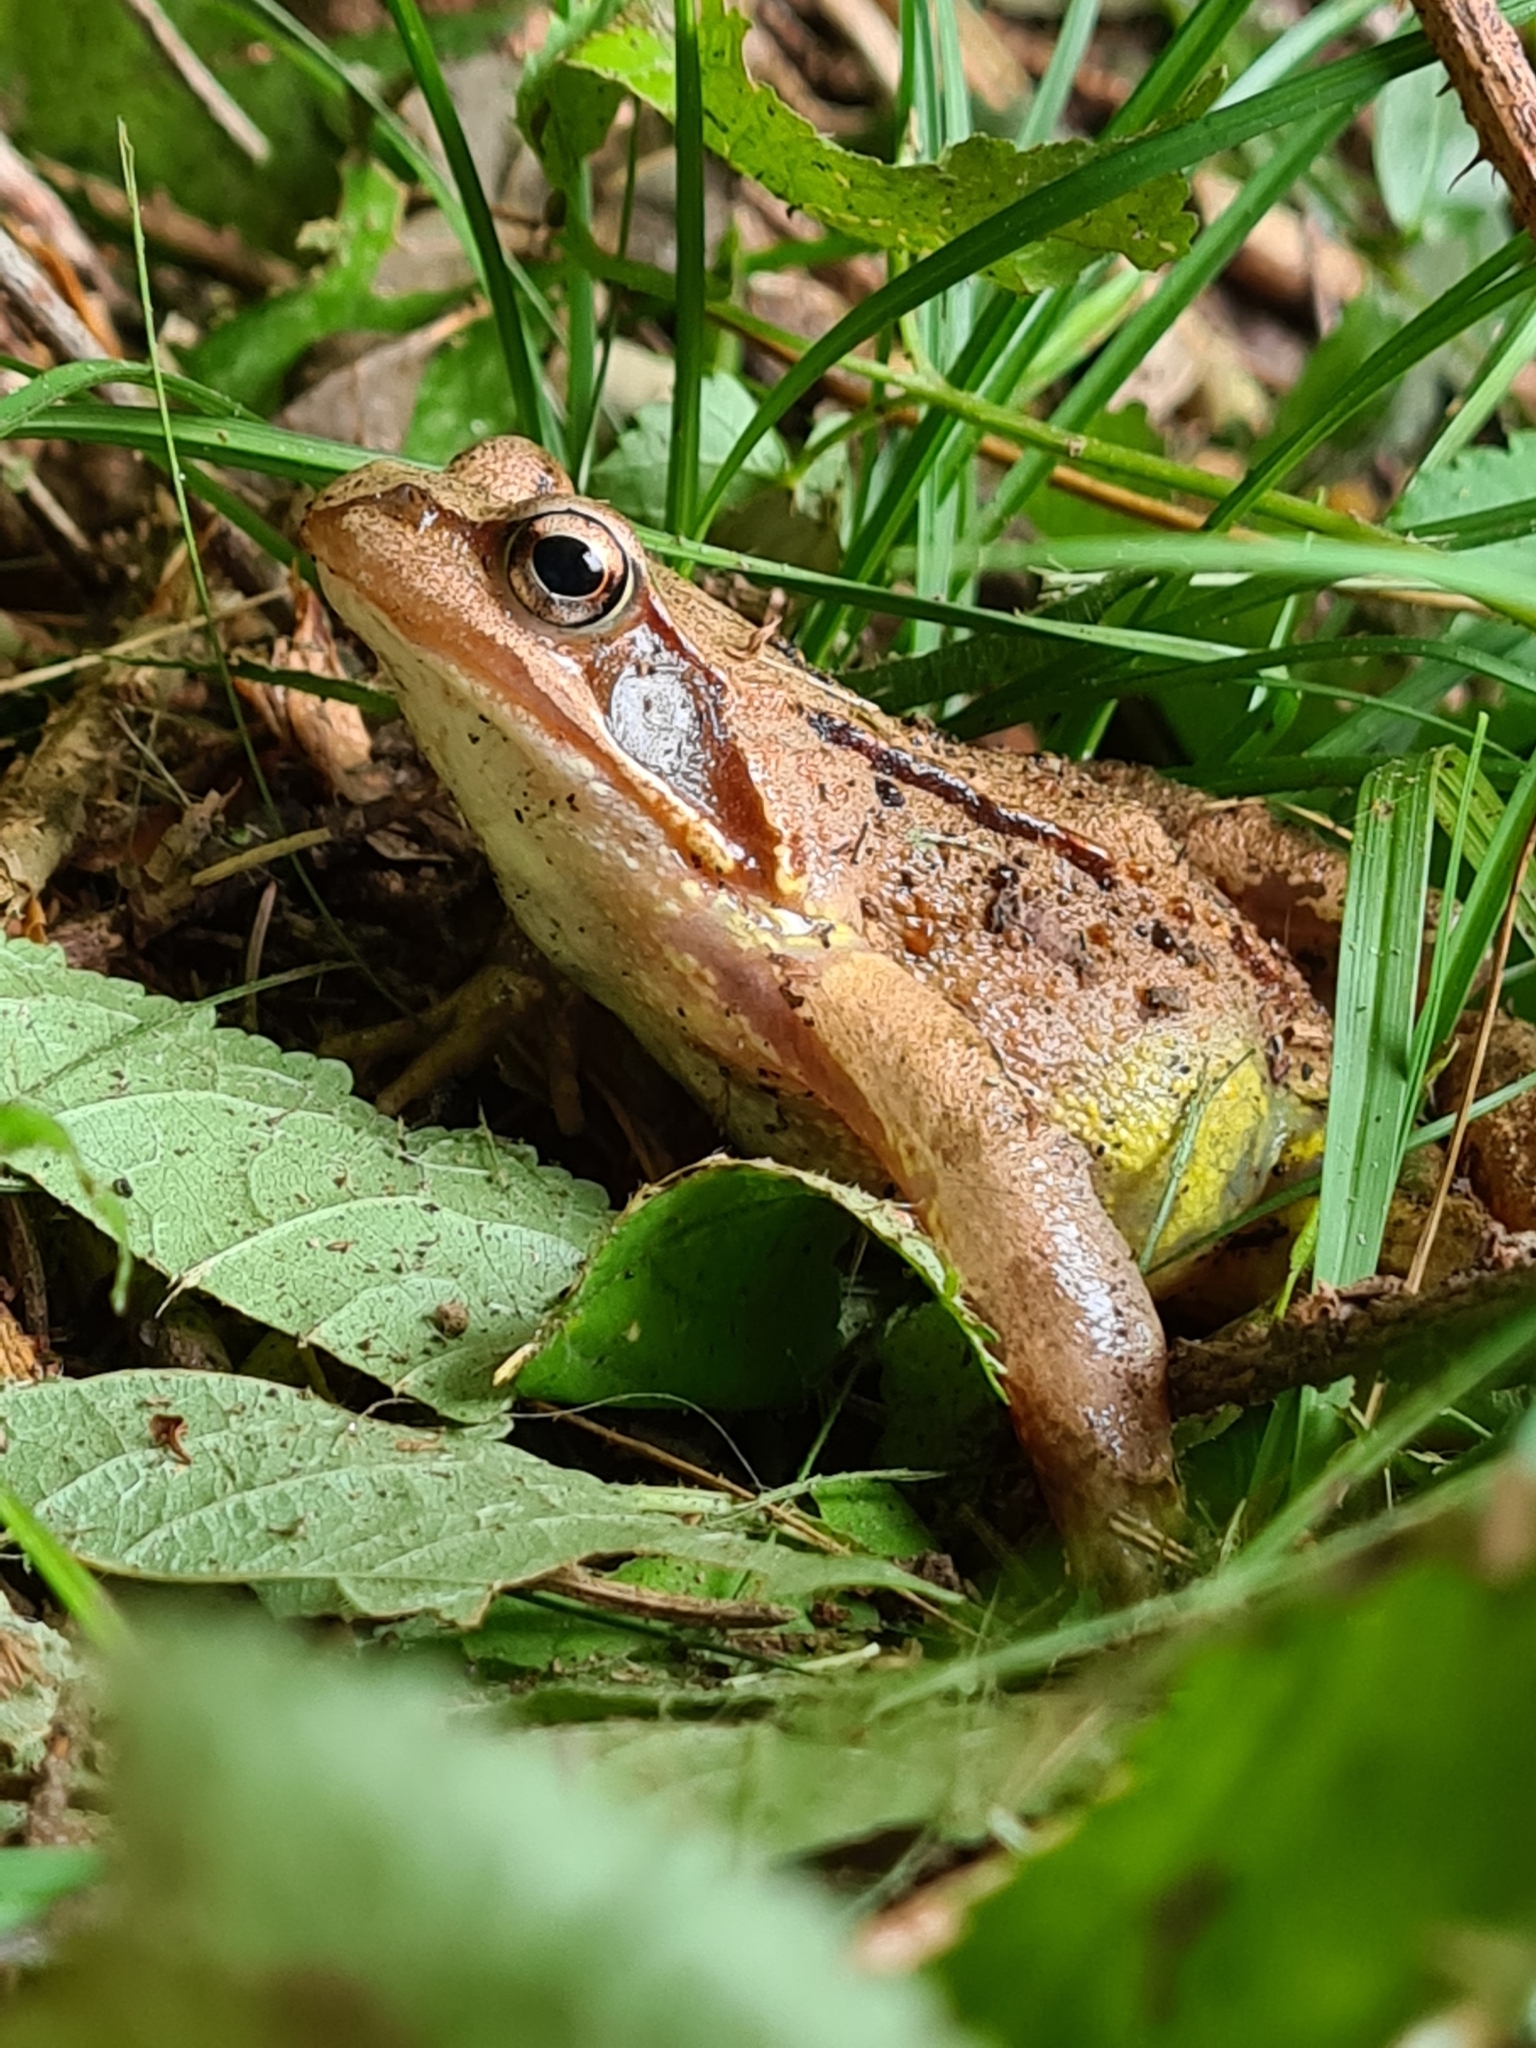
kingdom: Animalia
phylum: Chordata
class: Amphibia
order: Anura
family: Ranidae
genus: Rana
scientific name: Rana temporaria
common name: Common frog
